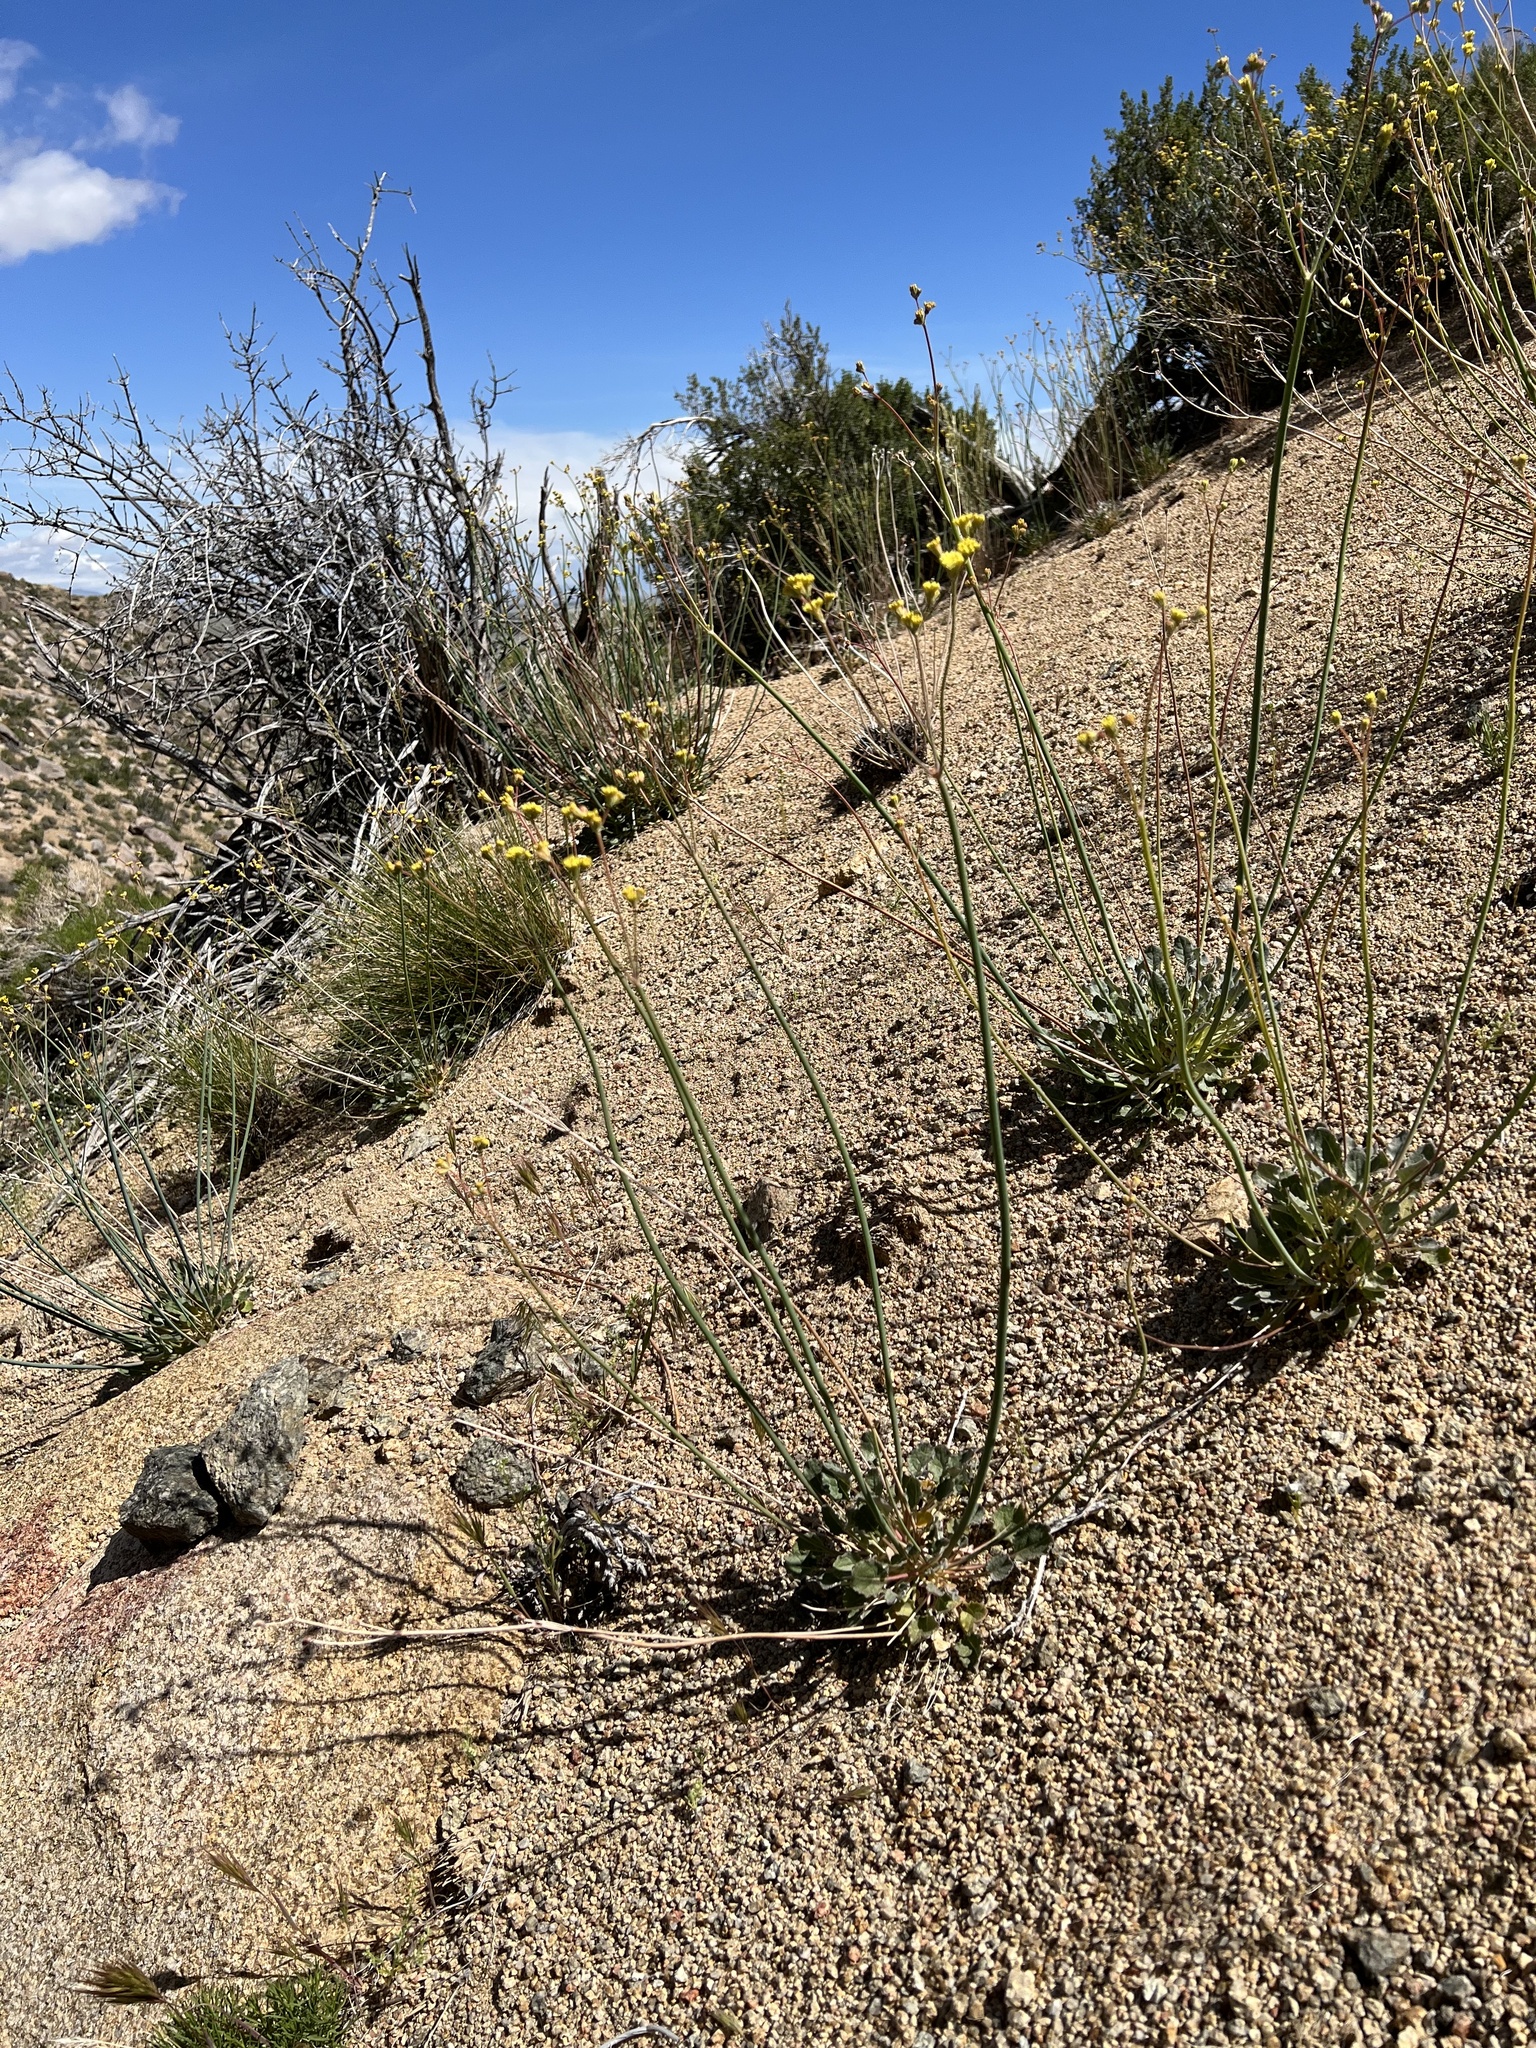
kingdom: Plantae
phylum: Tracheophyta
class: Magnoliopsida
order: Caryophyllales
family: Polygonaceae
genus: Eriogonum
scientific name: Eriogonum nudum
